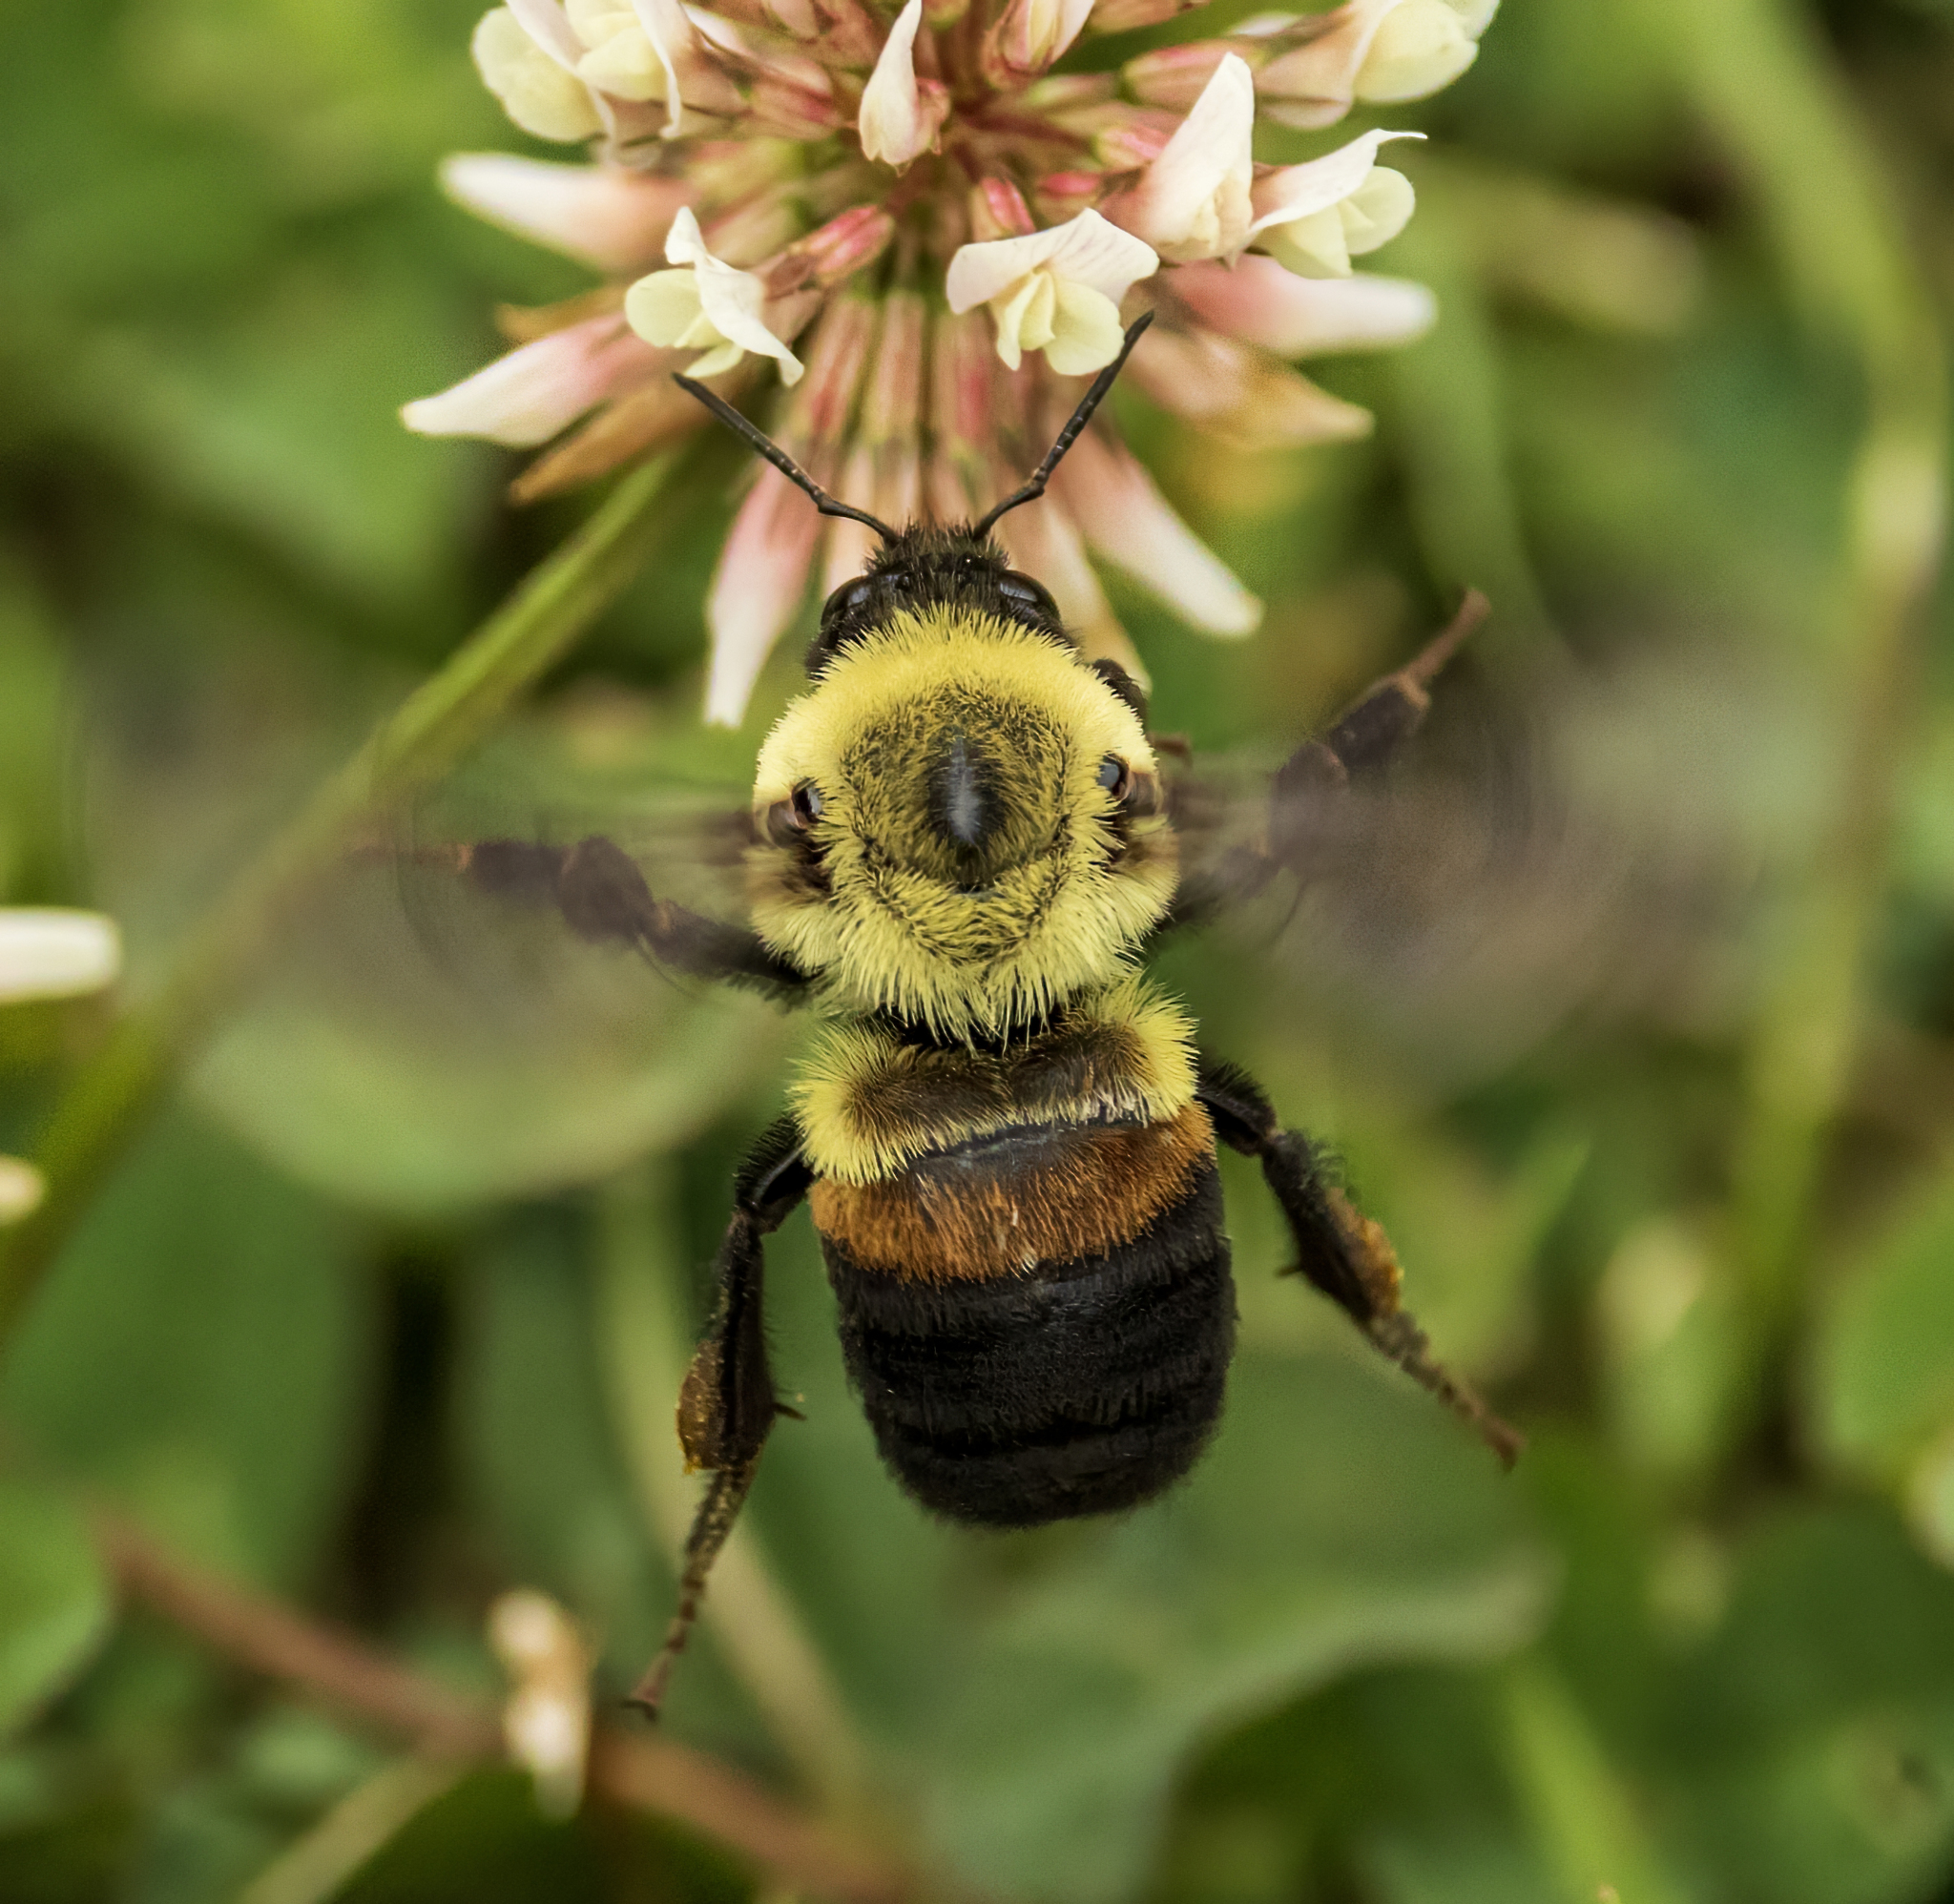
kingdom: Animalia
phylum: Arthropoda
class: Insecta
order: Hymenoptera
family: Apidae
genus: Bombus
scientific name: Bombus griseocollis
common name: Brown-belted bumble bee
